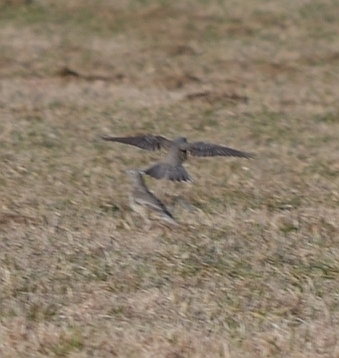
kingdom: Animalia
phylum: Chordata
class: Aves
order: Passeriformes
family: Turdidae
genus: Turdus
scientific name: Turdus viscivorus
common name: Mistle thrush
